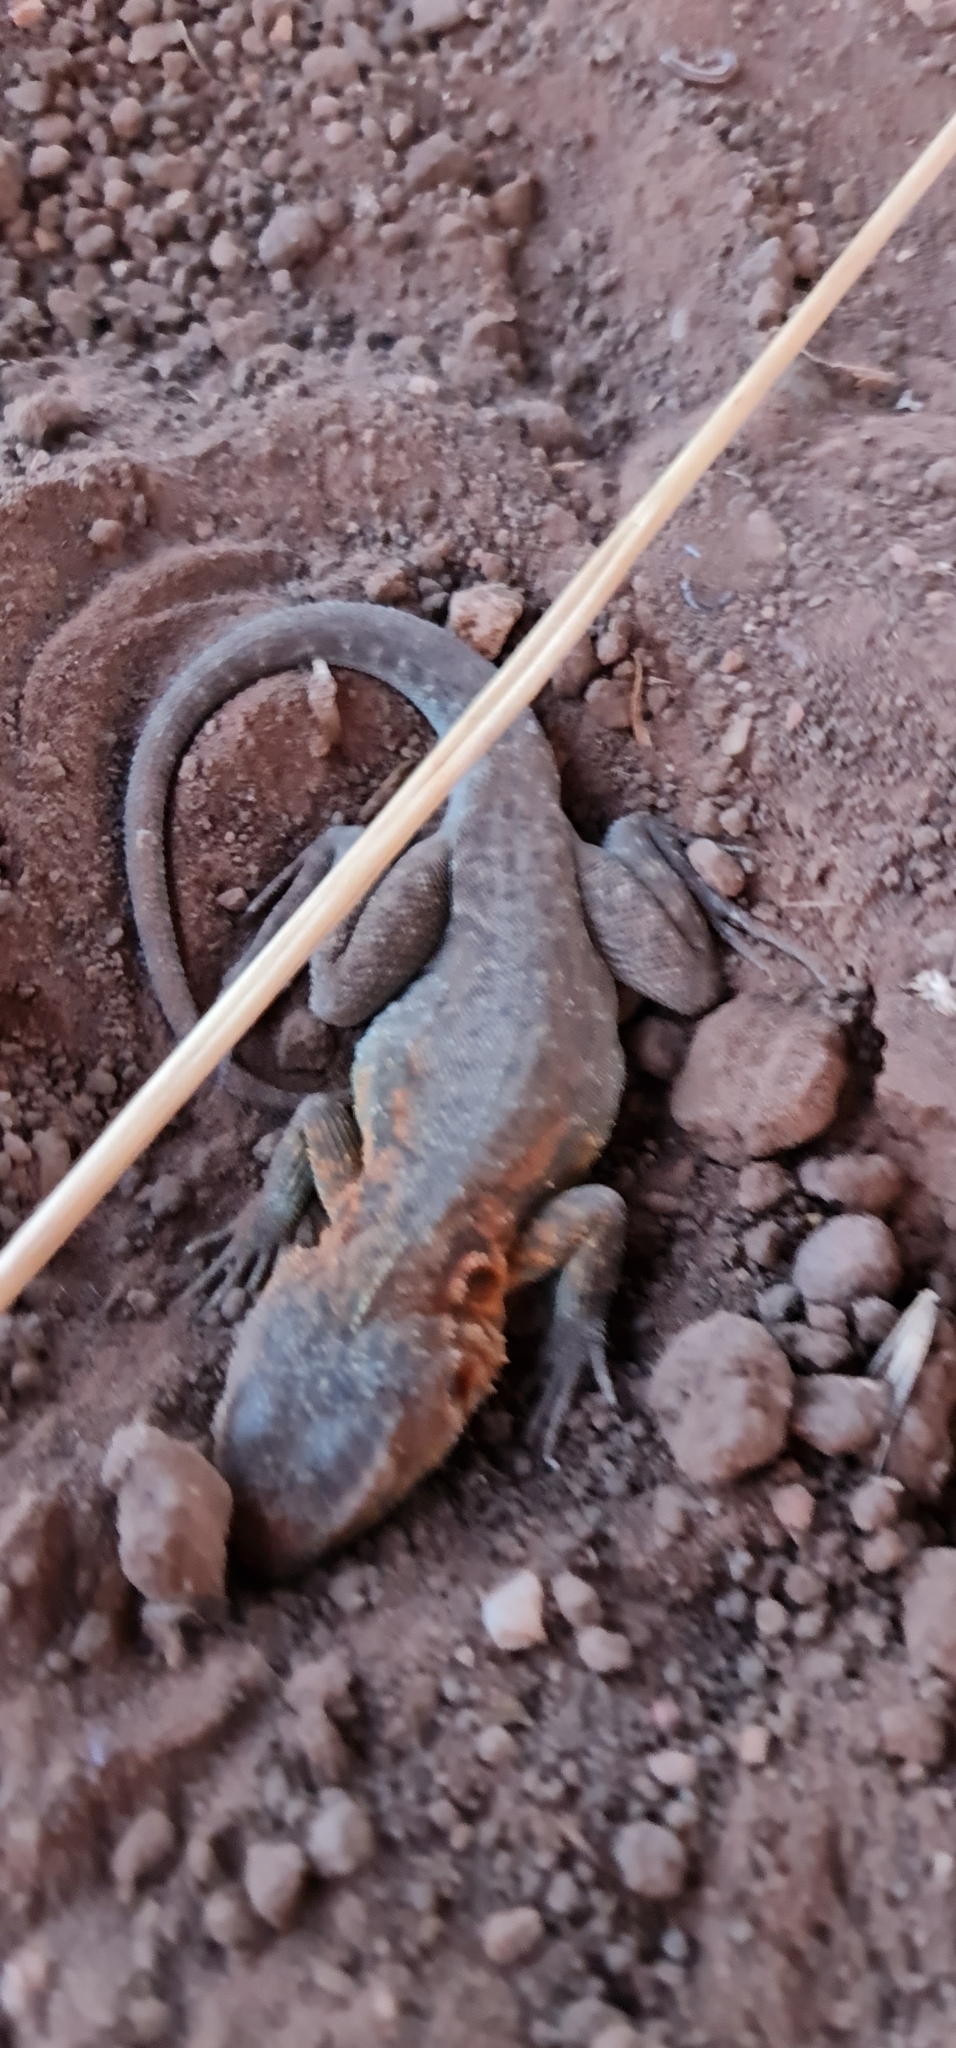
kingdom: Animalia
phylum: Chordata
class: Squamata
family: Agamidae
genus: Ctenophorus
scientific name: Ctenophorus decresii
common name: Tawny dragon
